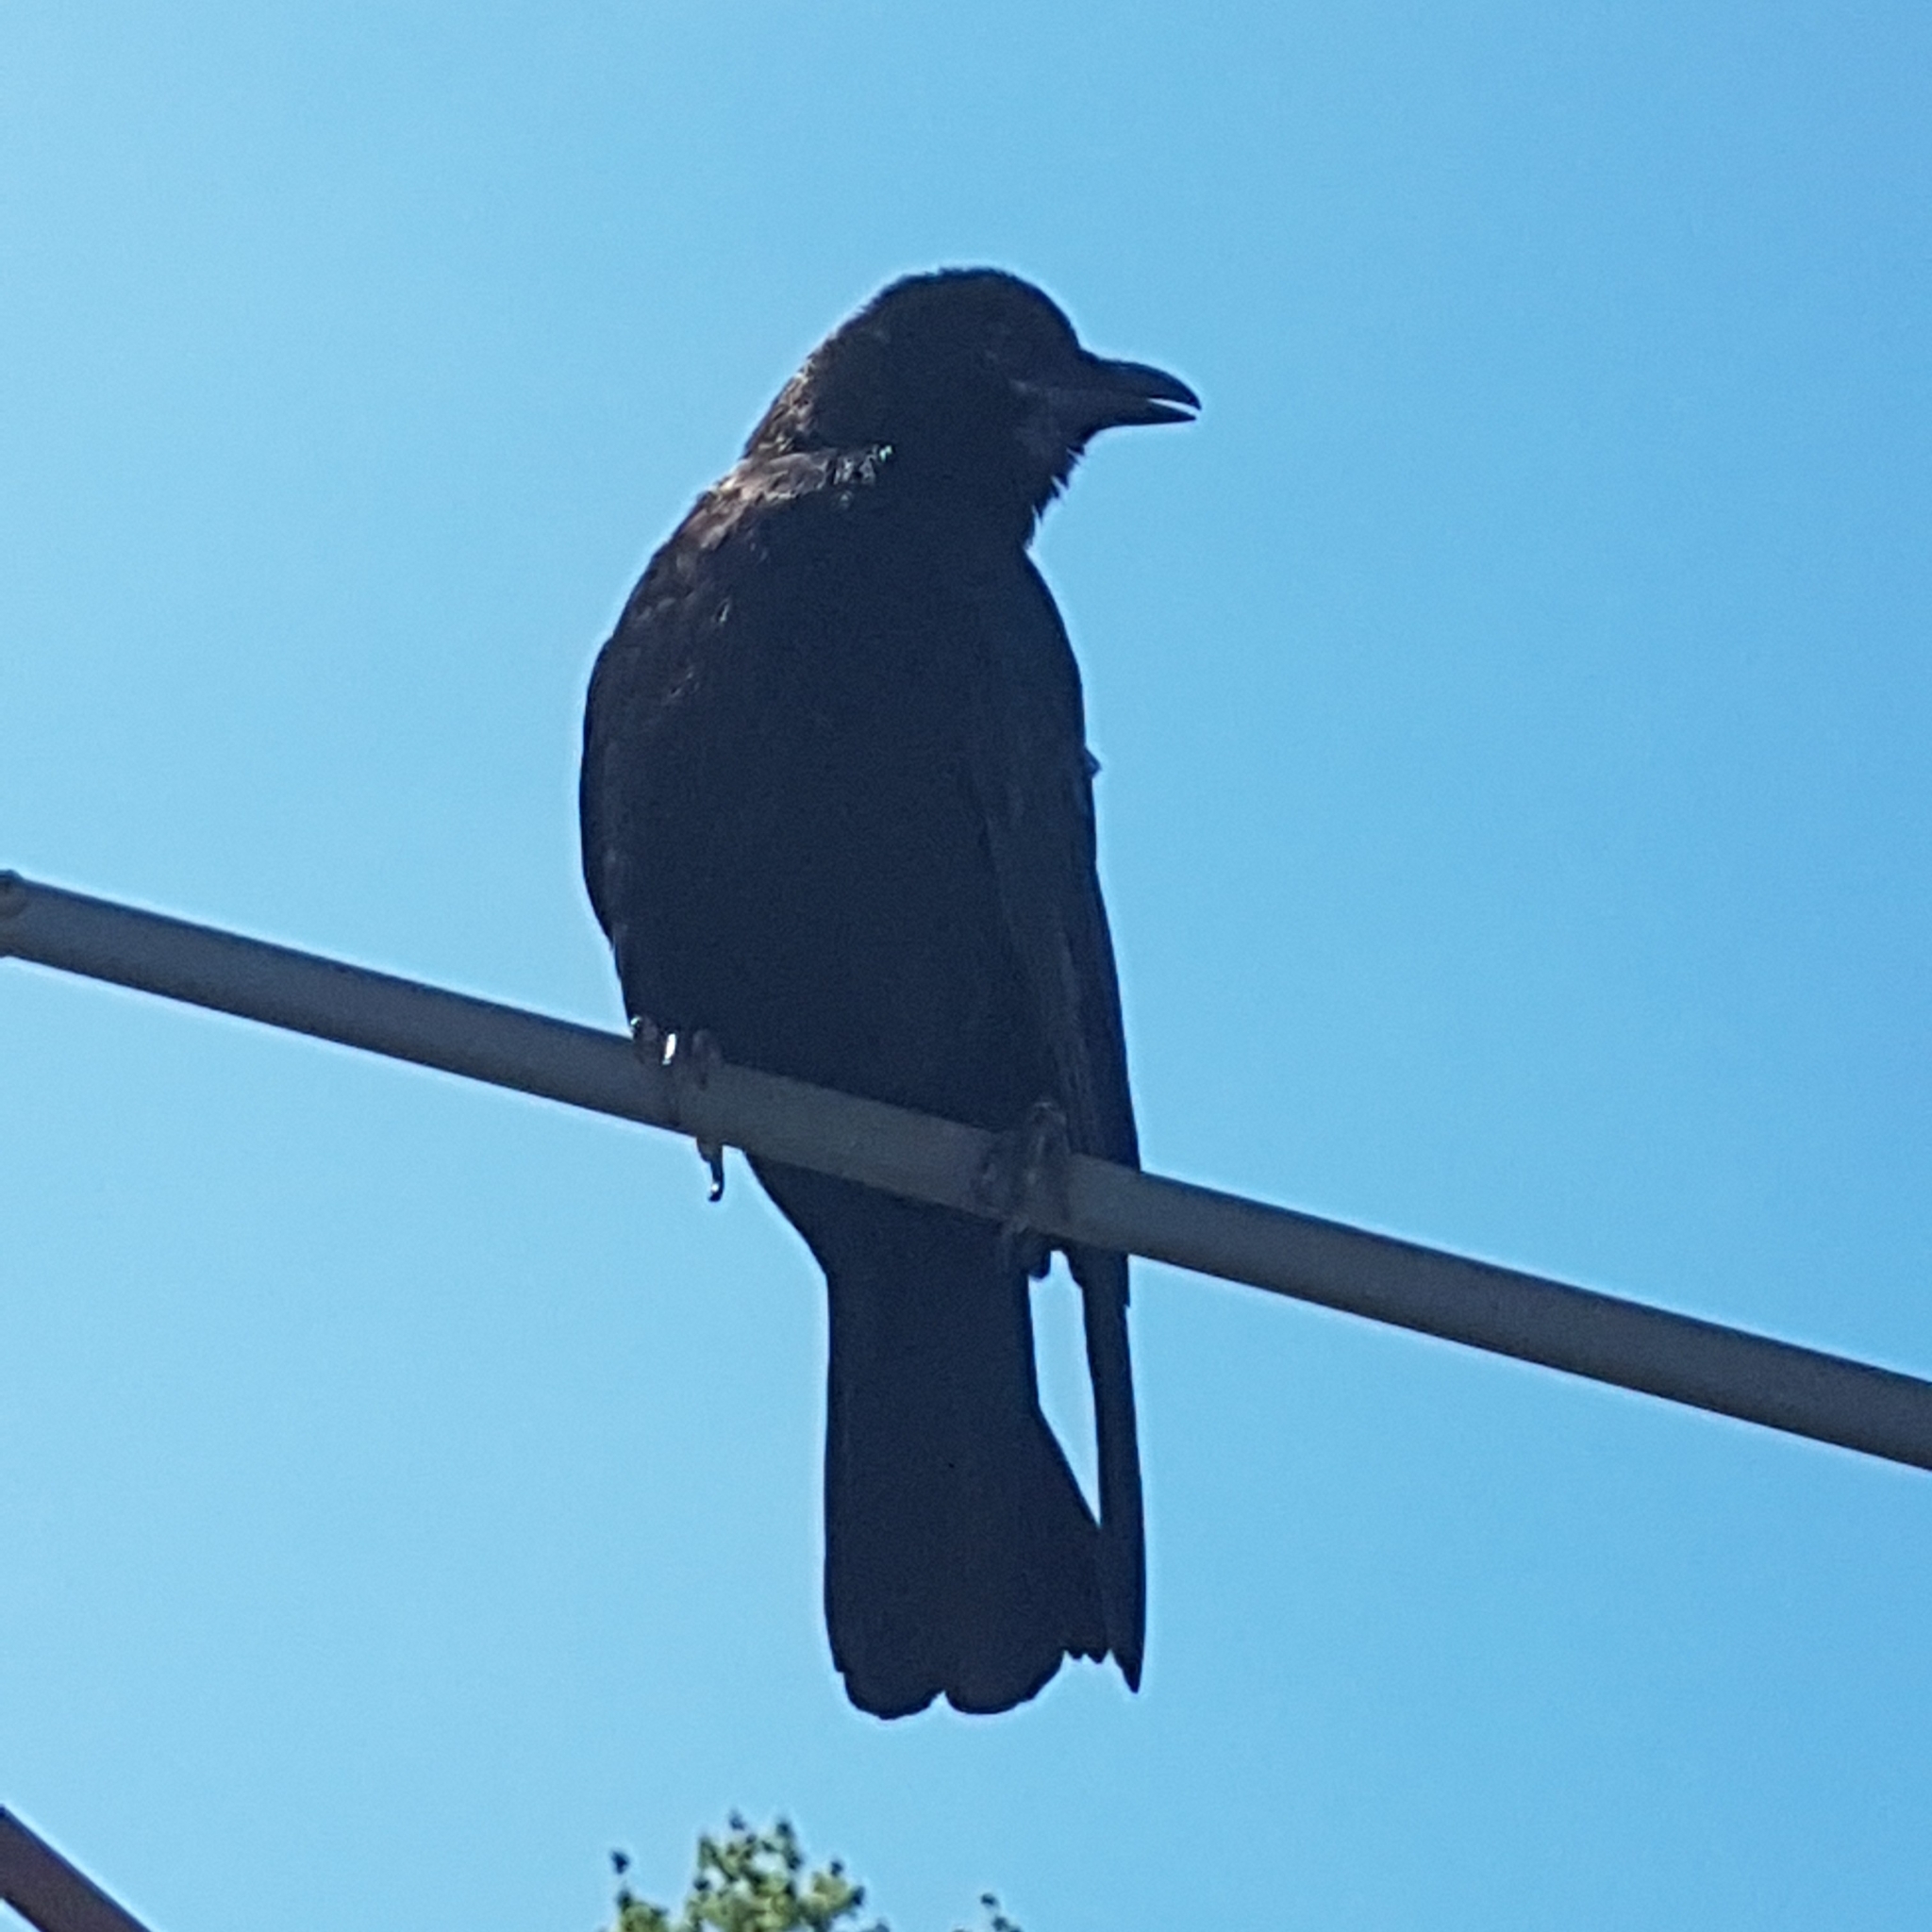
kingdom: Animalia
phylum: Chordata
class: Aves
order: Passeriformes
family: Corvidae
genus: Corvus
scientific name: Corvus brachyrhynchos
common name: American crow
